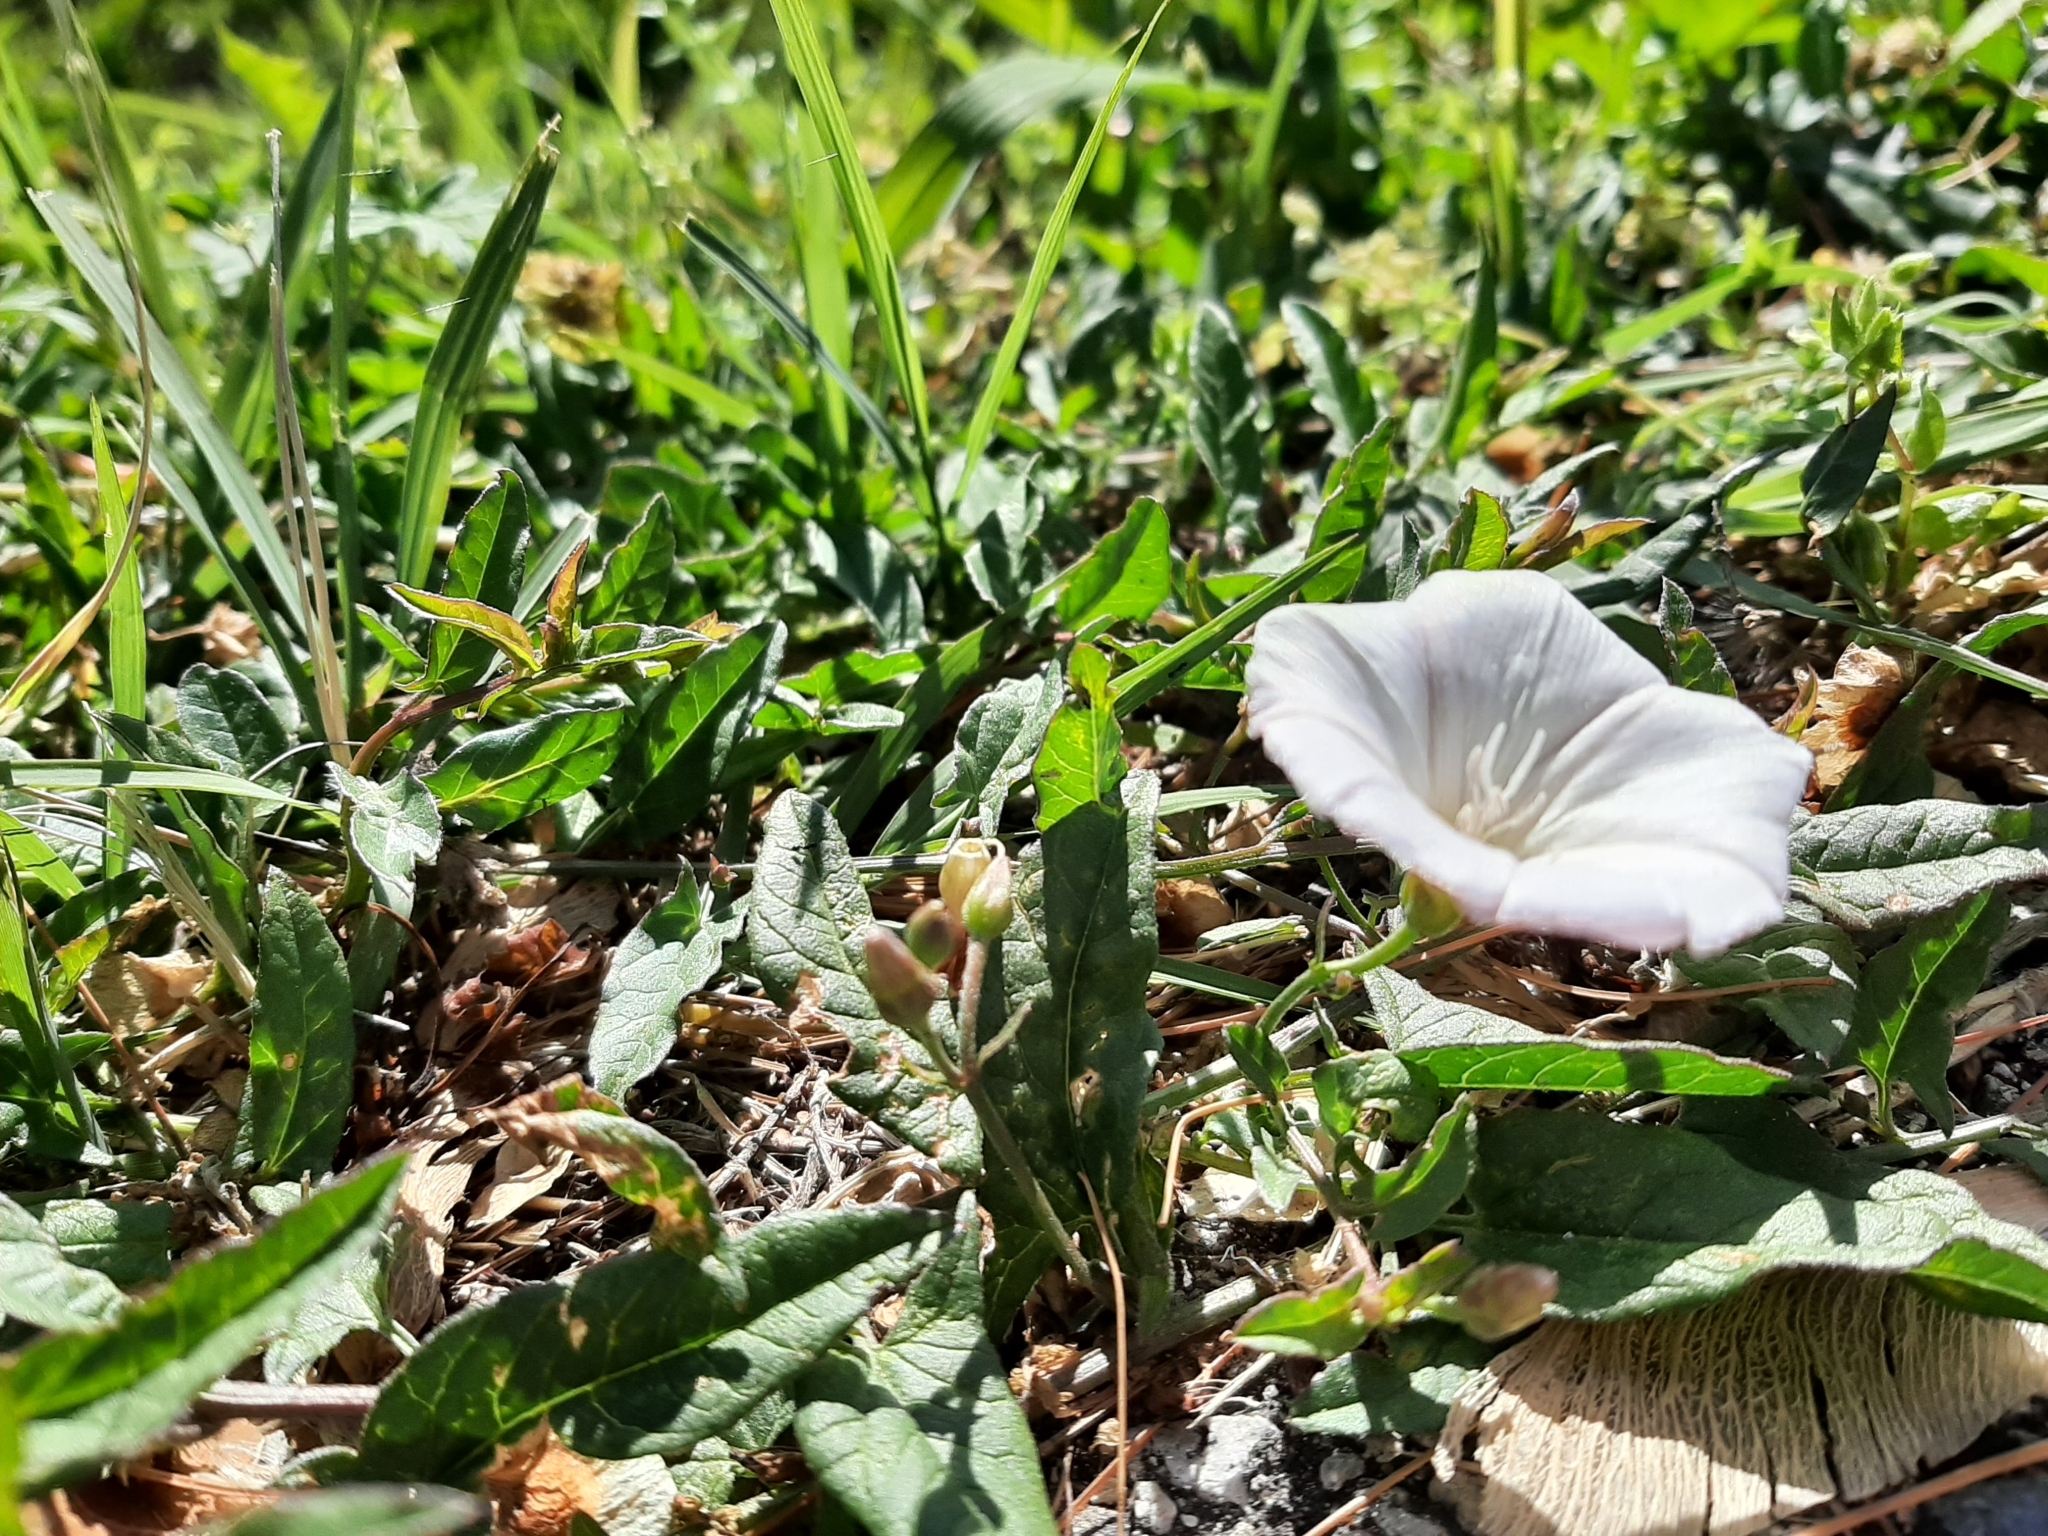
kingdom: Plantae
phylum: Tracheophyta
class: Magnoliopsida
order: Solanales
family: Convolvulaceae
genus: Convolvulus
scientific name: Convolvulus arvensis
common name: Field bindweed
